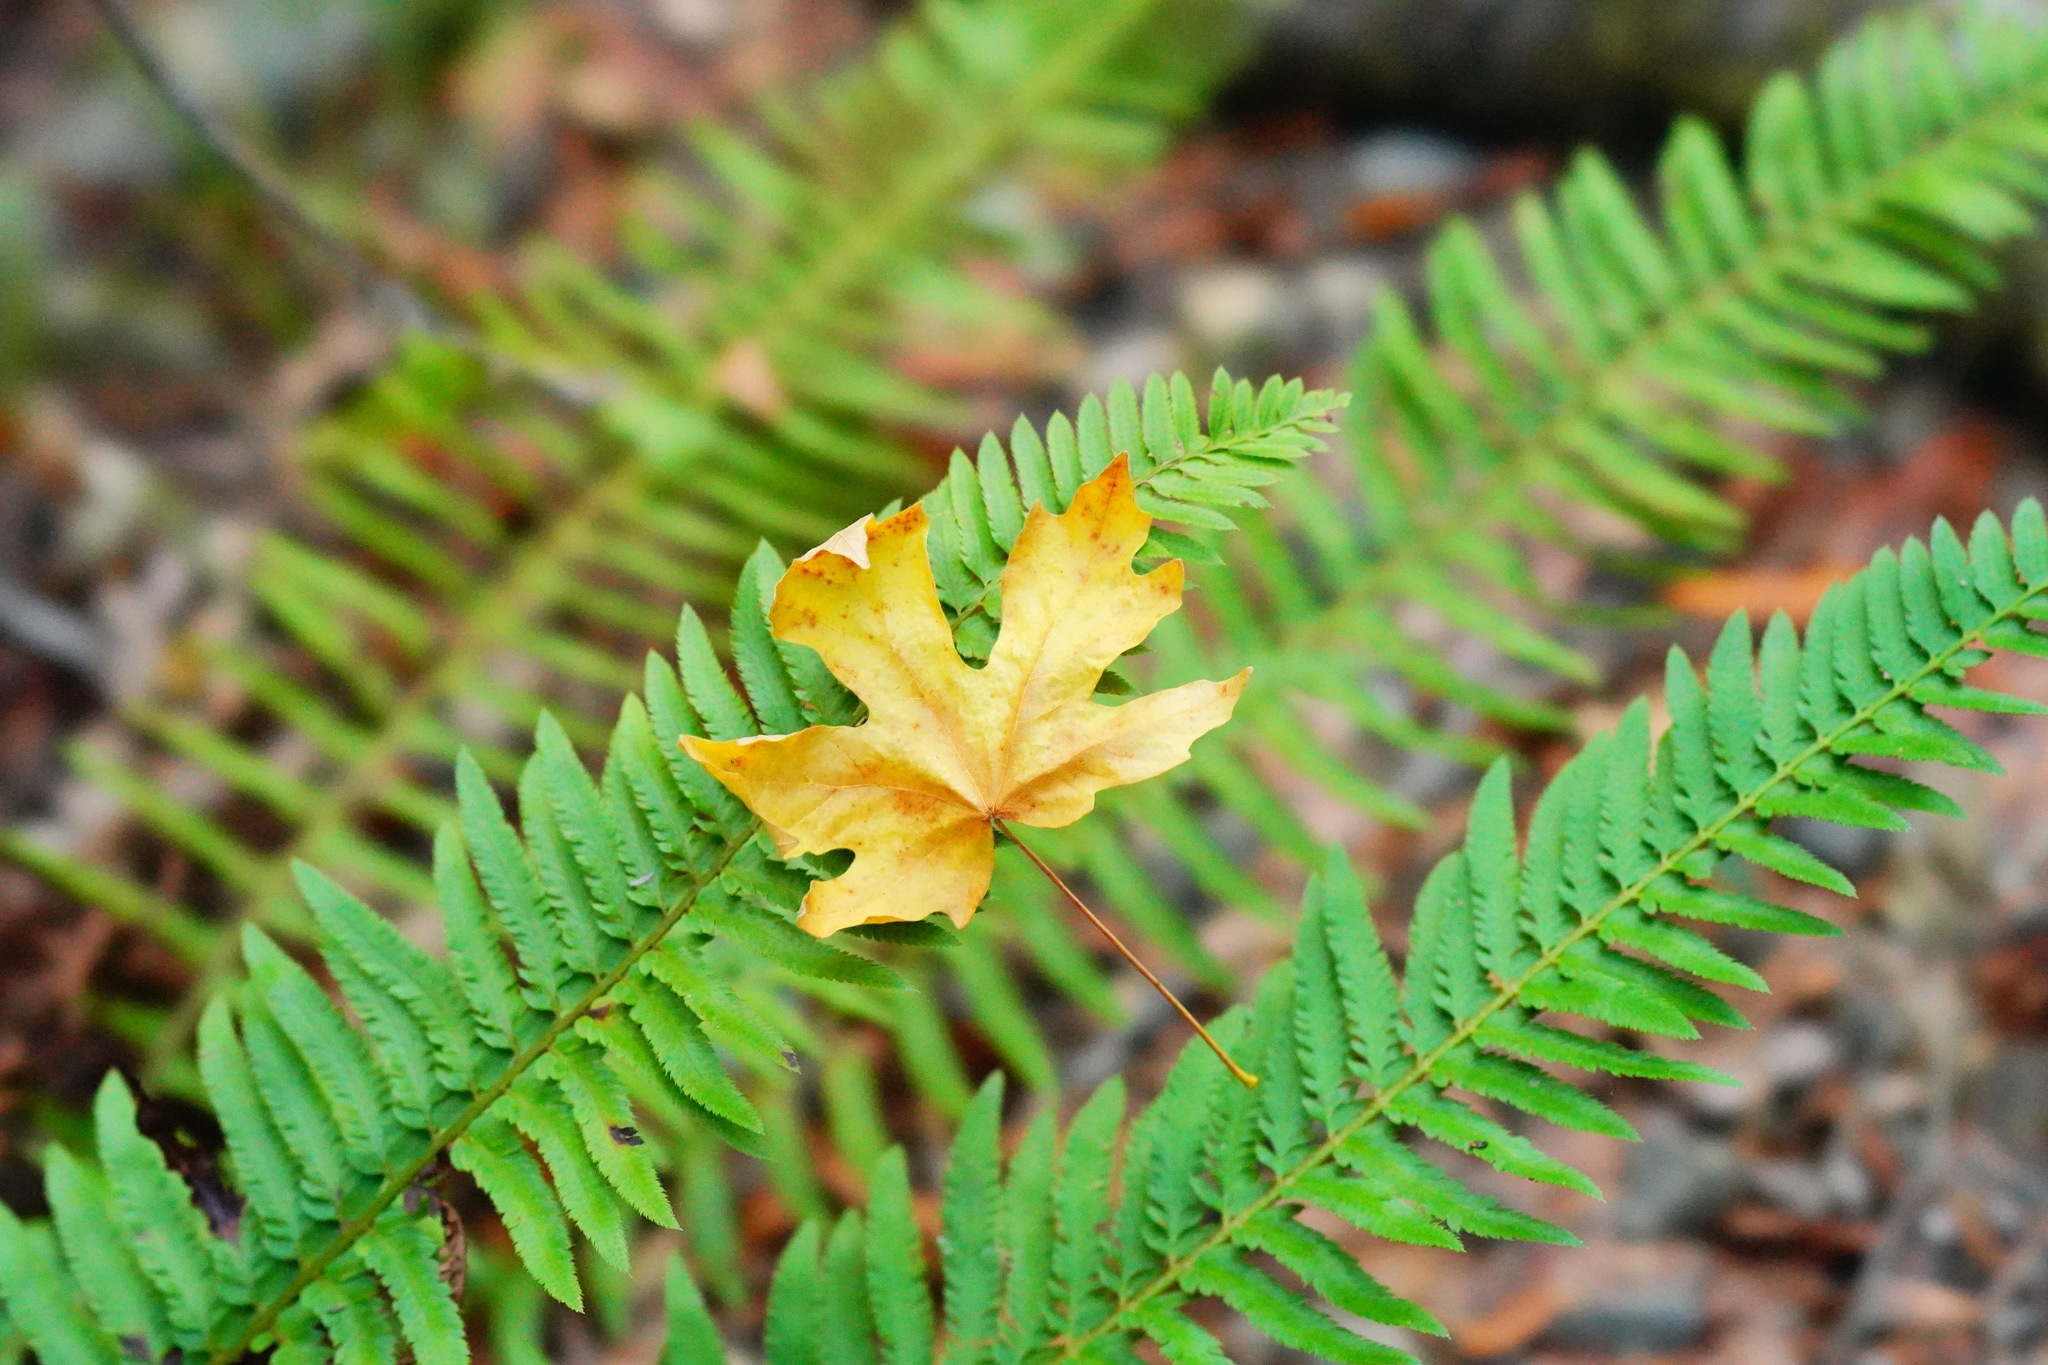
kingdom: Plantae
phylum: Tracheophyta
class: Polypodiopsida
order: Polypodiales
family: Dryopteridaceae
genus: Polystichum
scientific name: Polystichum
